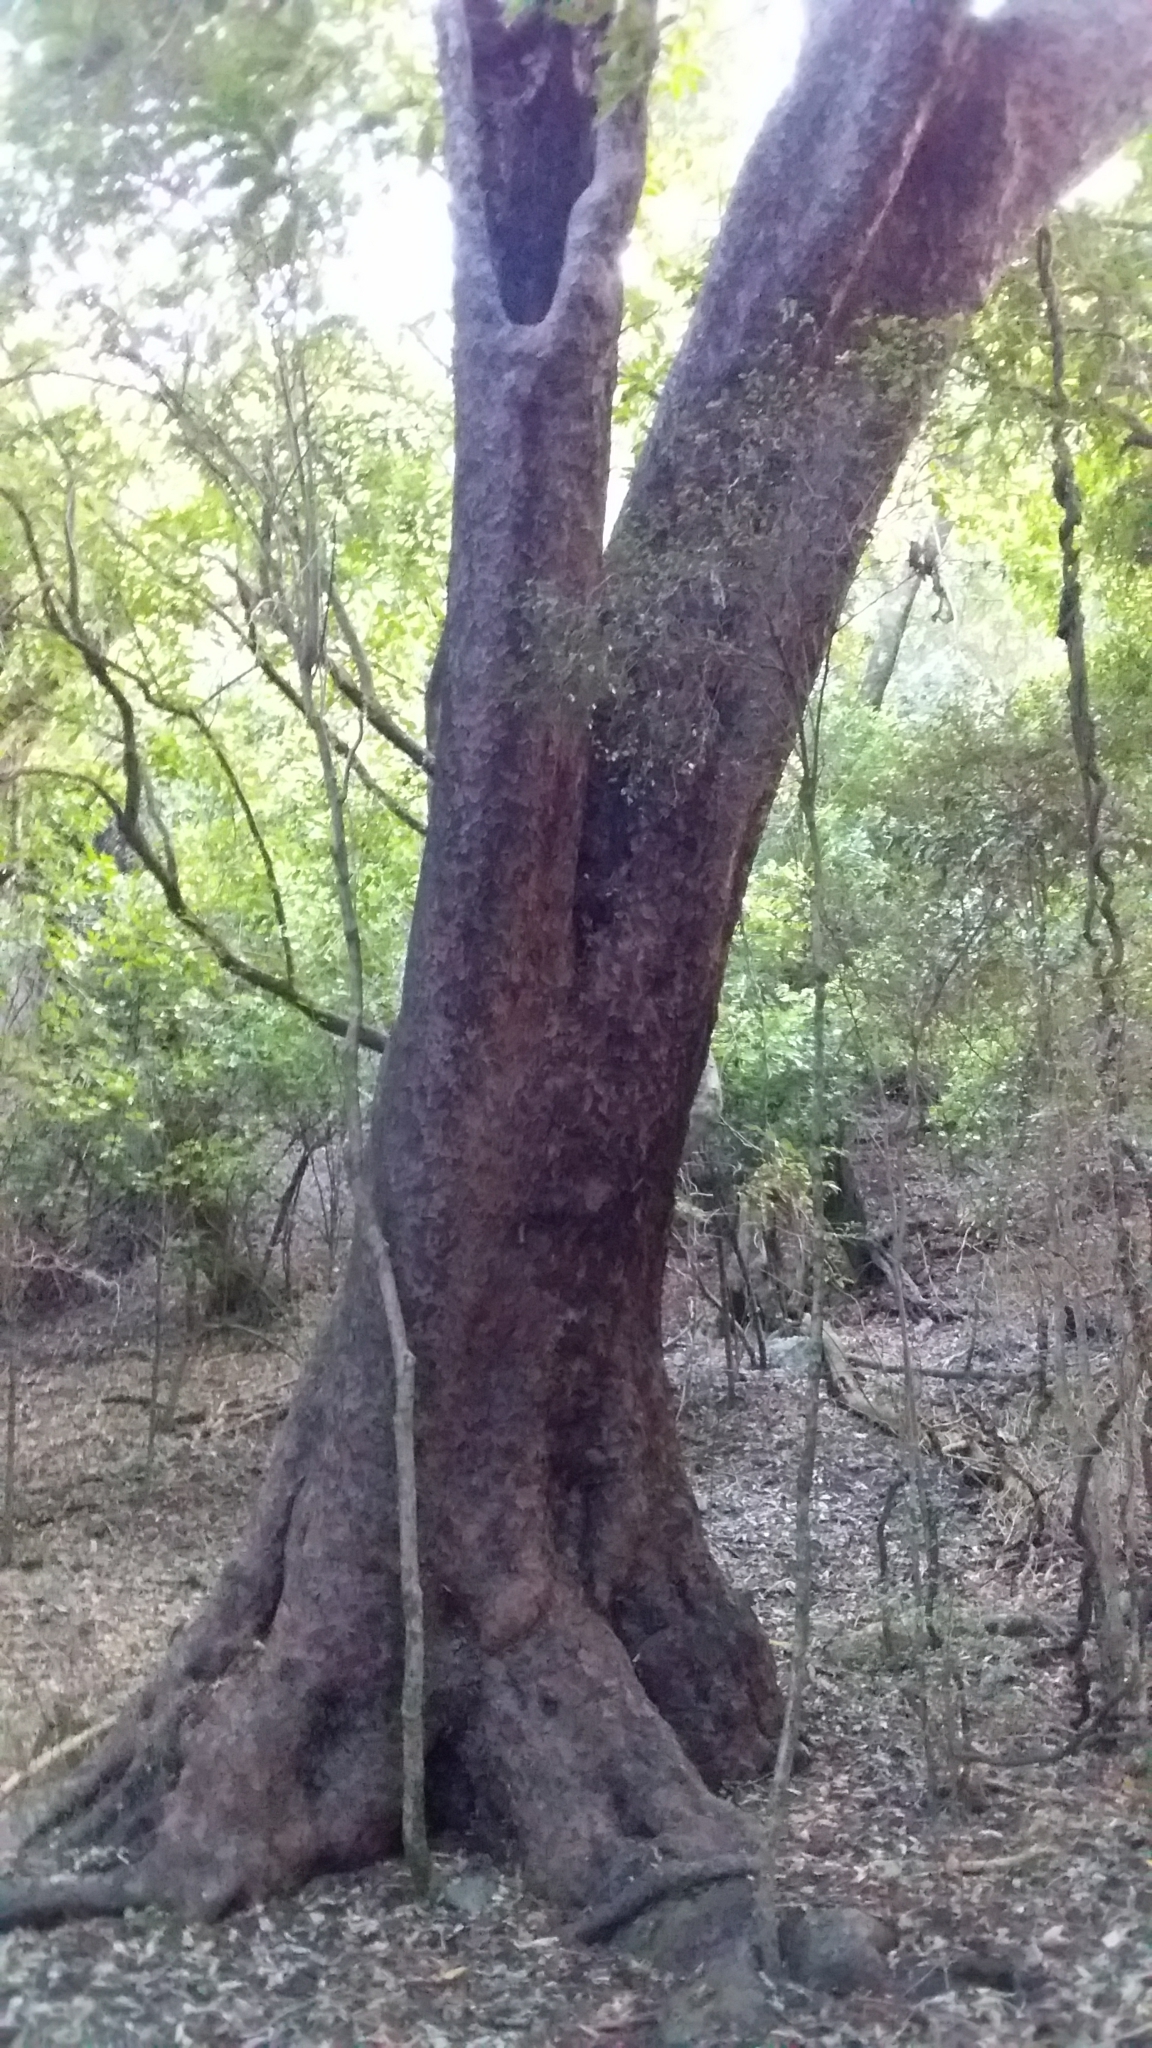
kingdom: Plantae
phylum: Tracheophyta
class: Pinopsida
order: Pinales
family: Podocarpaceae
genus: Prumnopitys
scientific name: Prumnopitys taxifolia
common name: Matai
